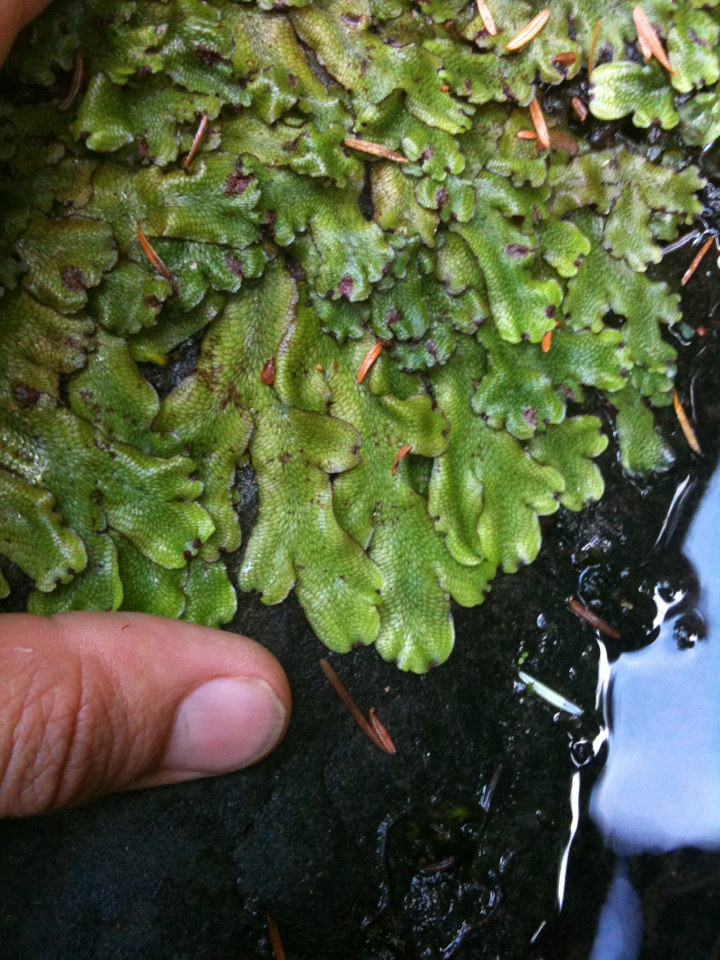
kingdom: Plantae
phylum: Marchantiophyta
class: Marchantiopsida
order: Marchantiales
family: Conocephalaceae
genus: Conocephalum
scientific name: Conocephalum salebrosum
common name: Cat-tongue liverwort
